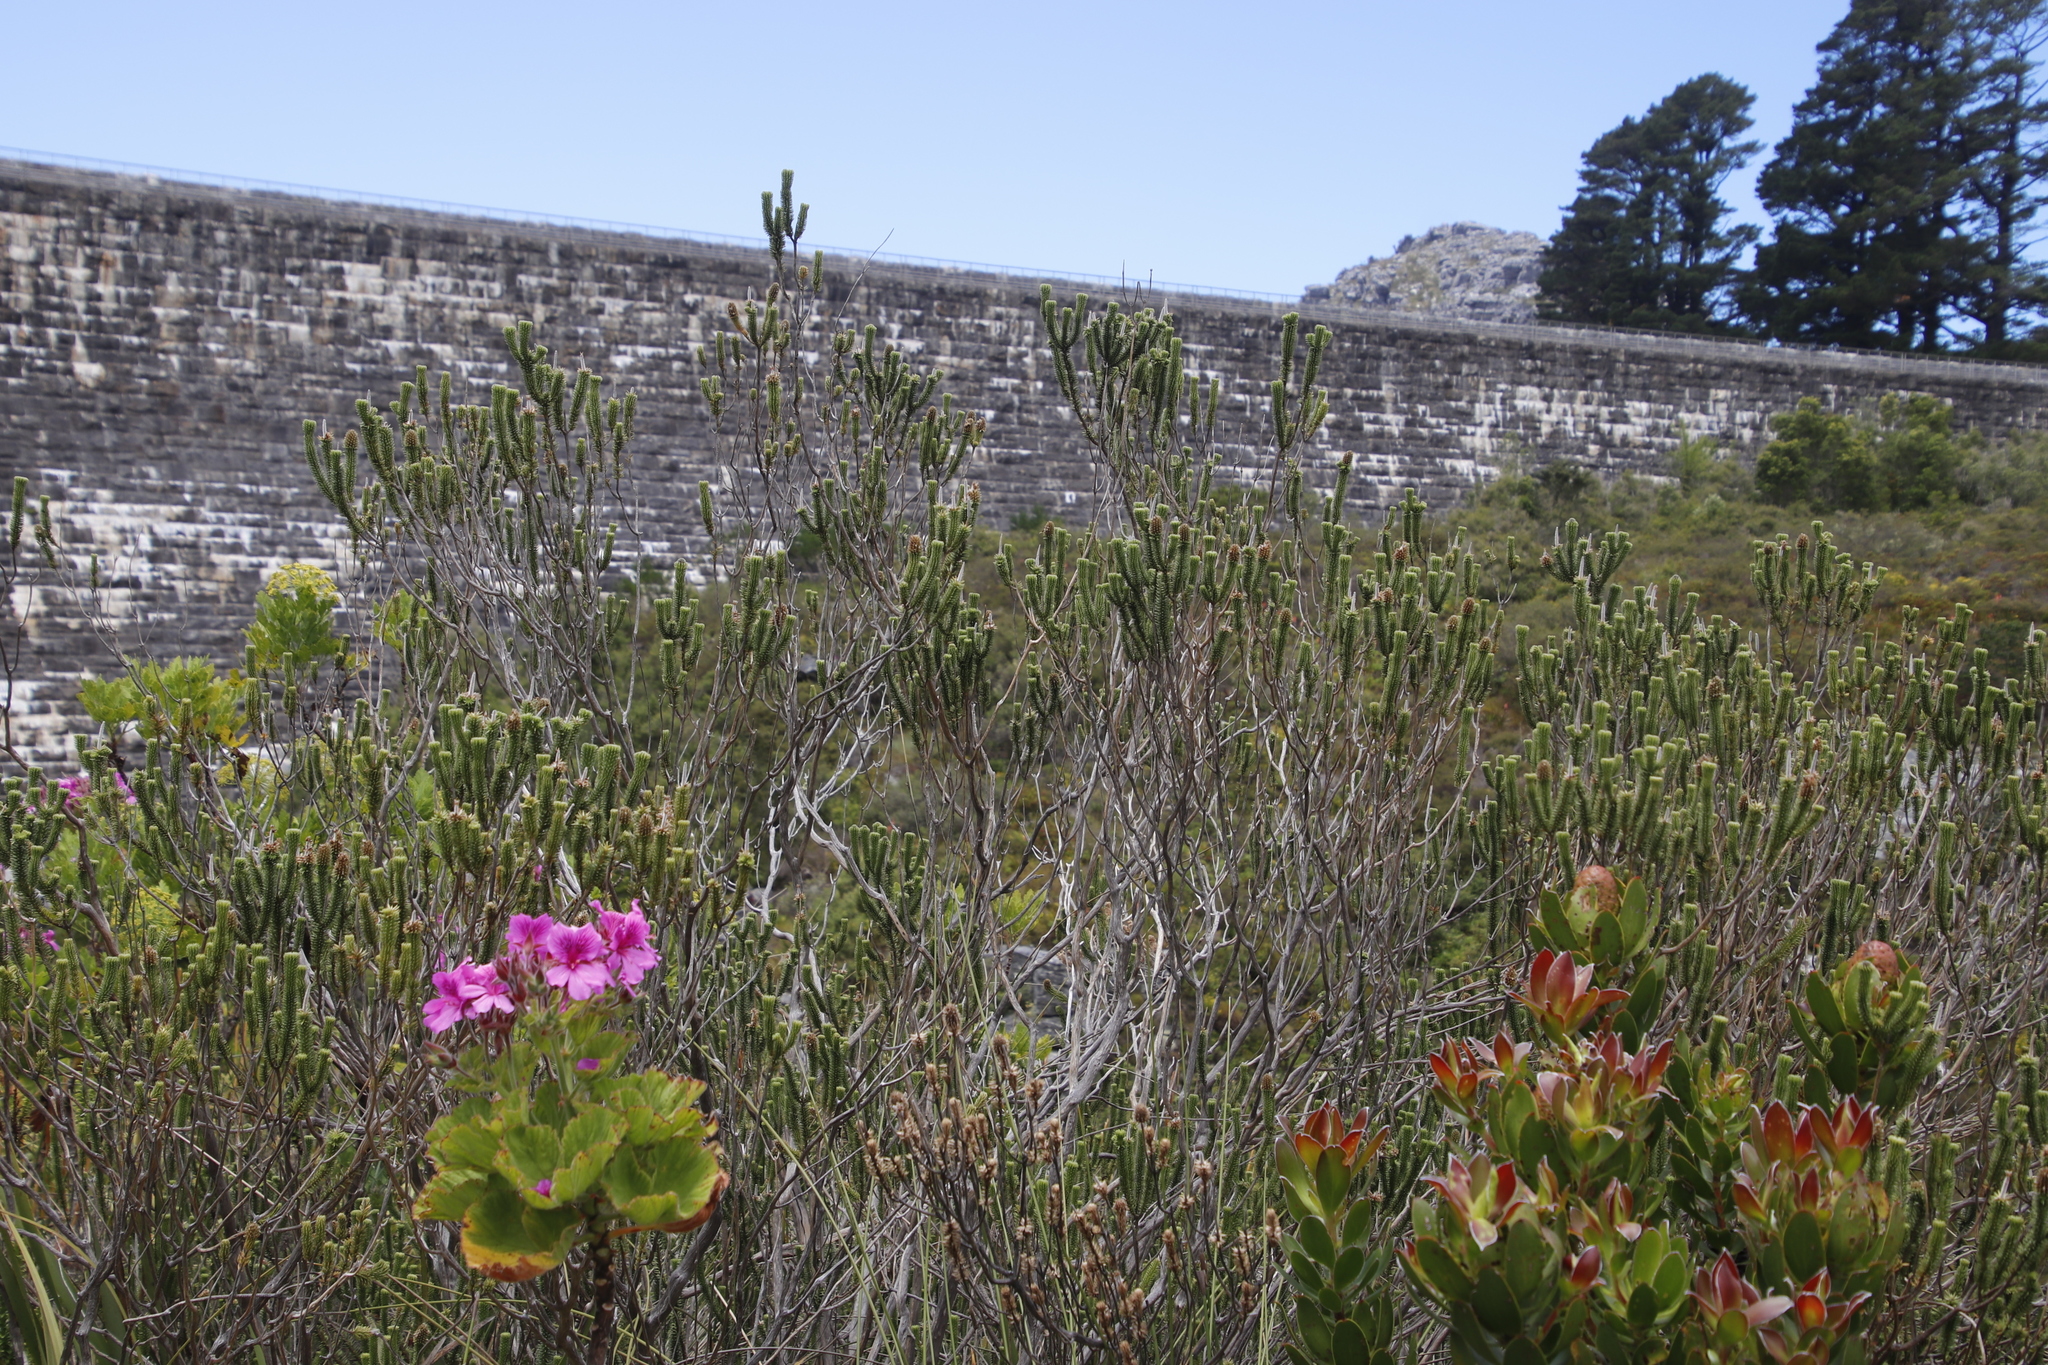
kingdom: Plantae
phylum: Tracheophyta
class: Magnoliopsida
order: Lamiales
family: Stilbaceae
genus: Stilbe
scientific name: Stilbe vestita
